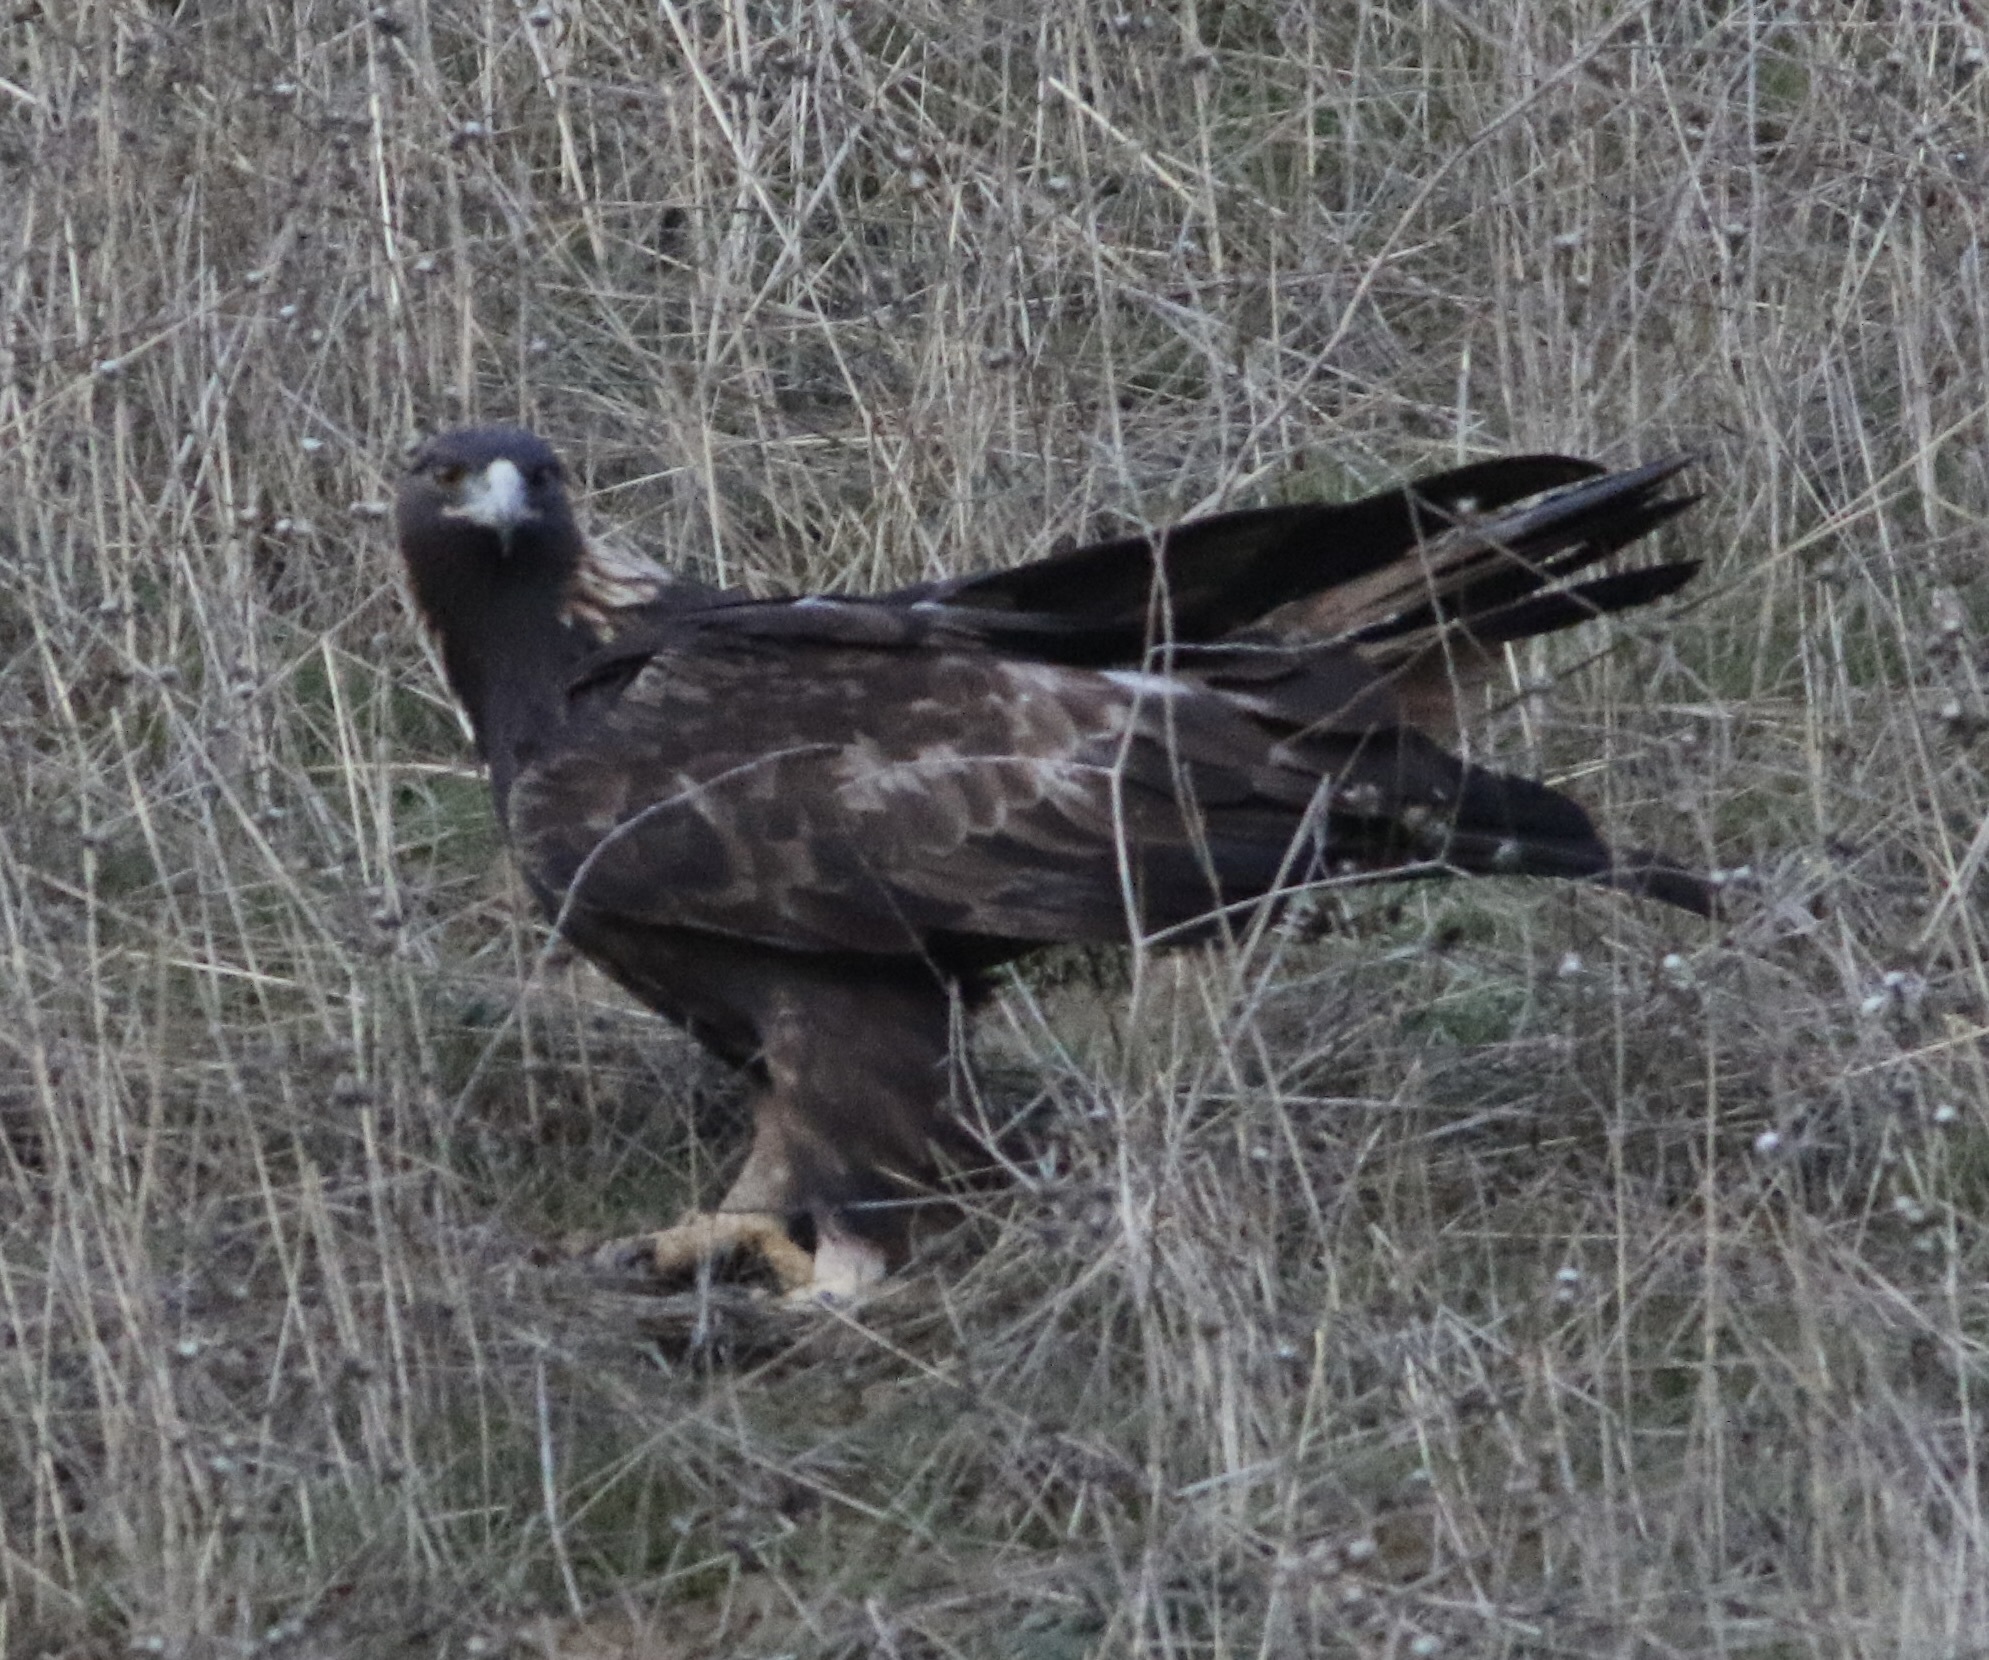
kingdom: Animalia
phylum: Chordata
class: Aves
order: Accipitriformes
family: Accipitridae
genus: Aquila
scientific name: Aquila chrysaetos
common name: Golden eagle
